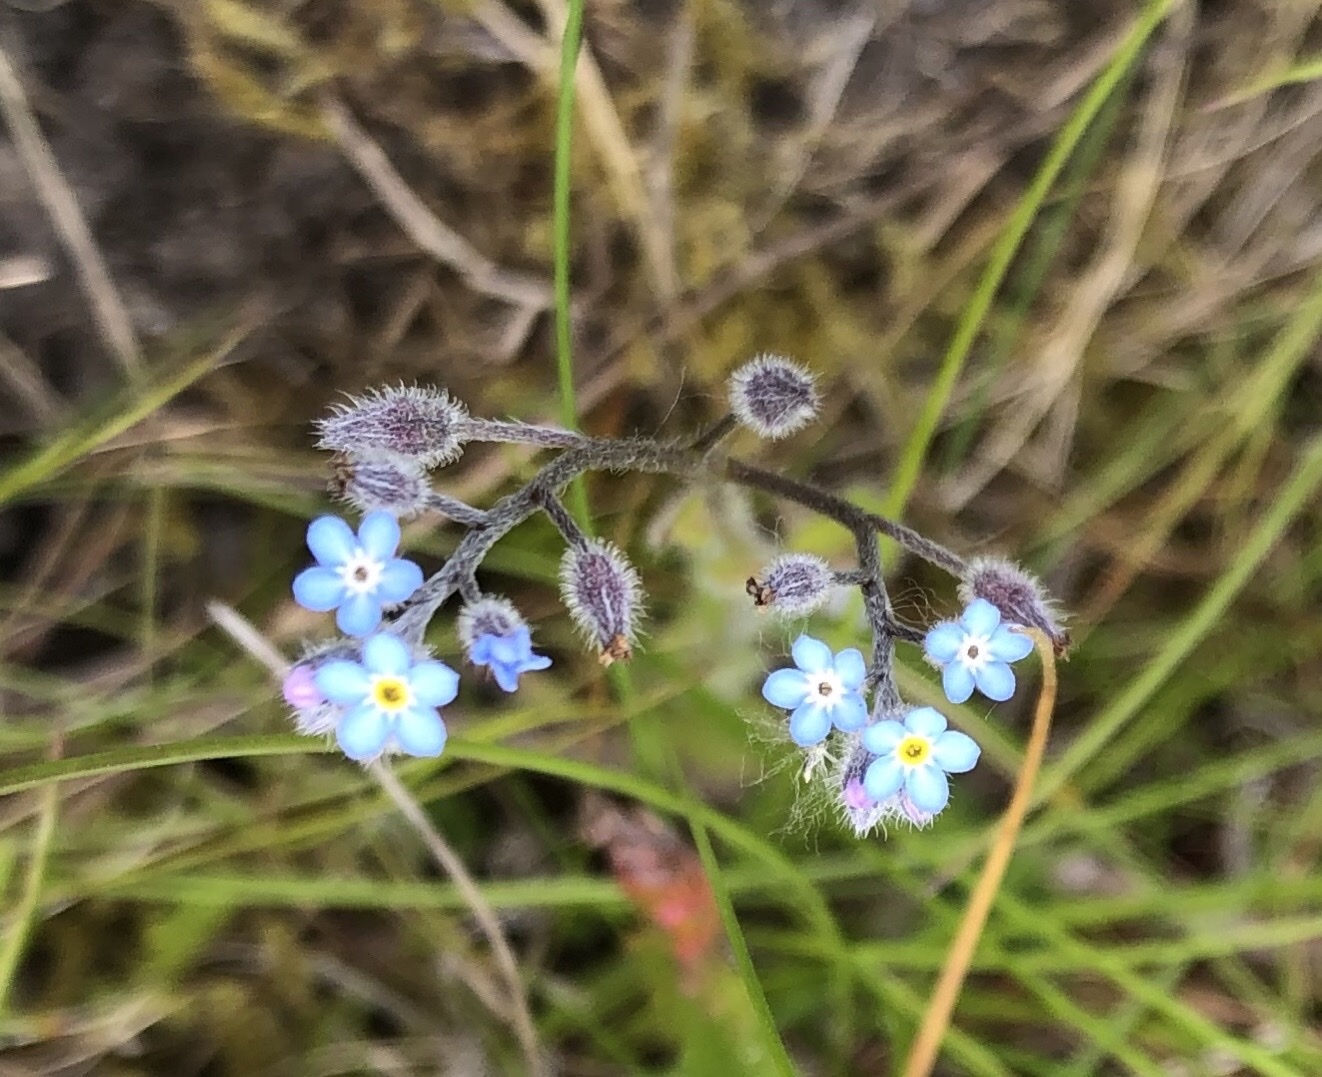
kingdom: Plantae
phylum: Tracheophyta
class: Magnoliopsida
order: Boraginales
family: Boraginaceae
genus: Myosotis
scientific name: Myosotis arvensis
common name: Field forget-me-not
